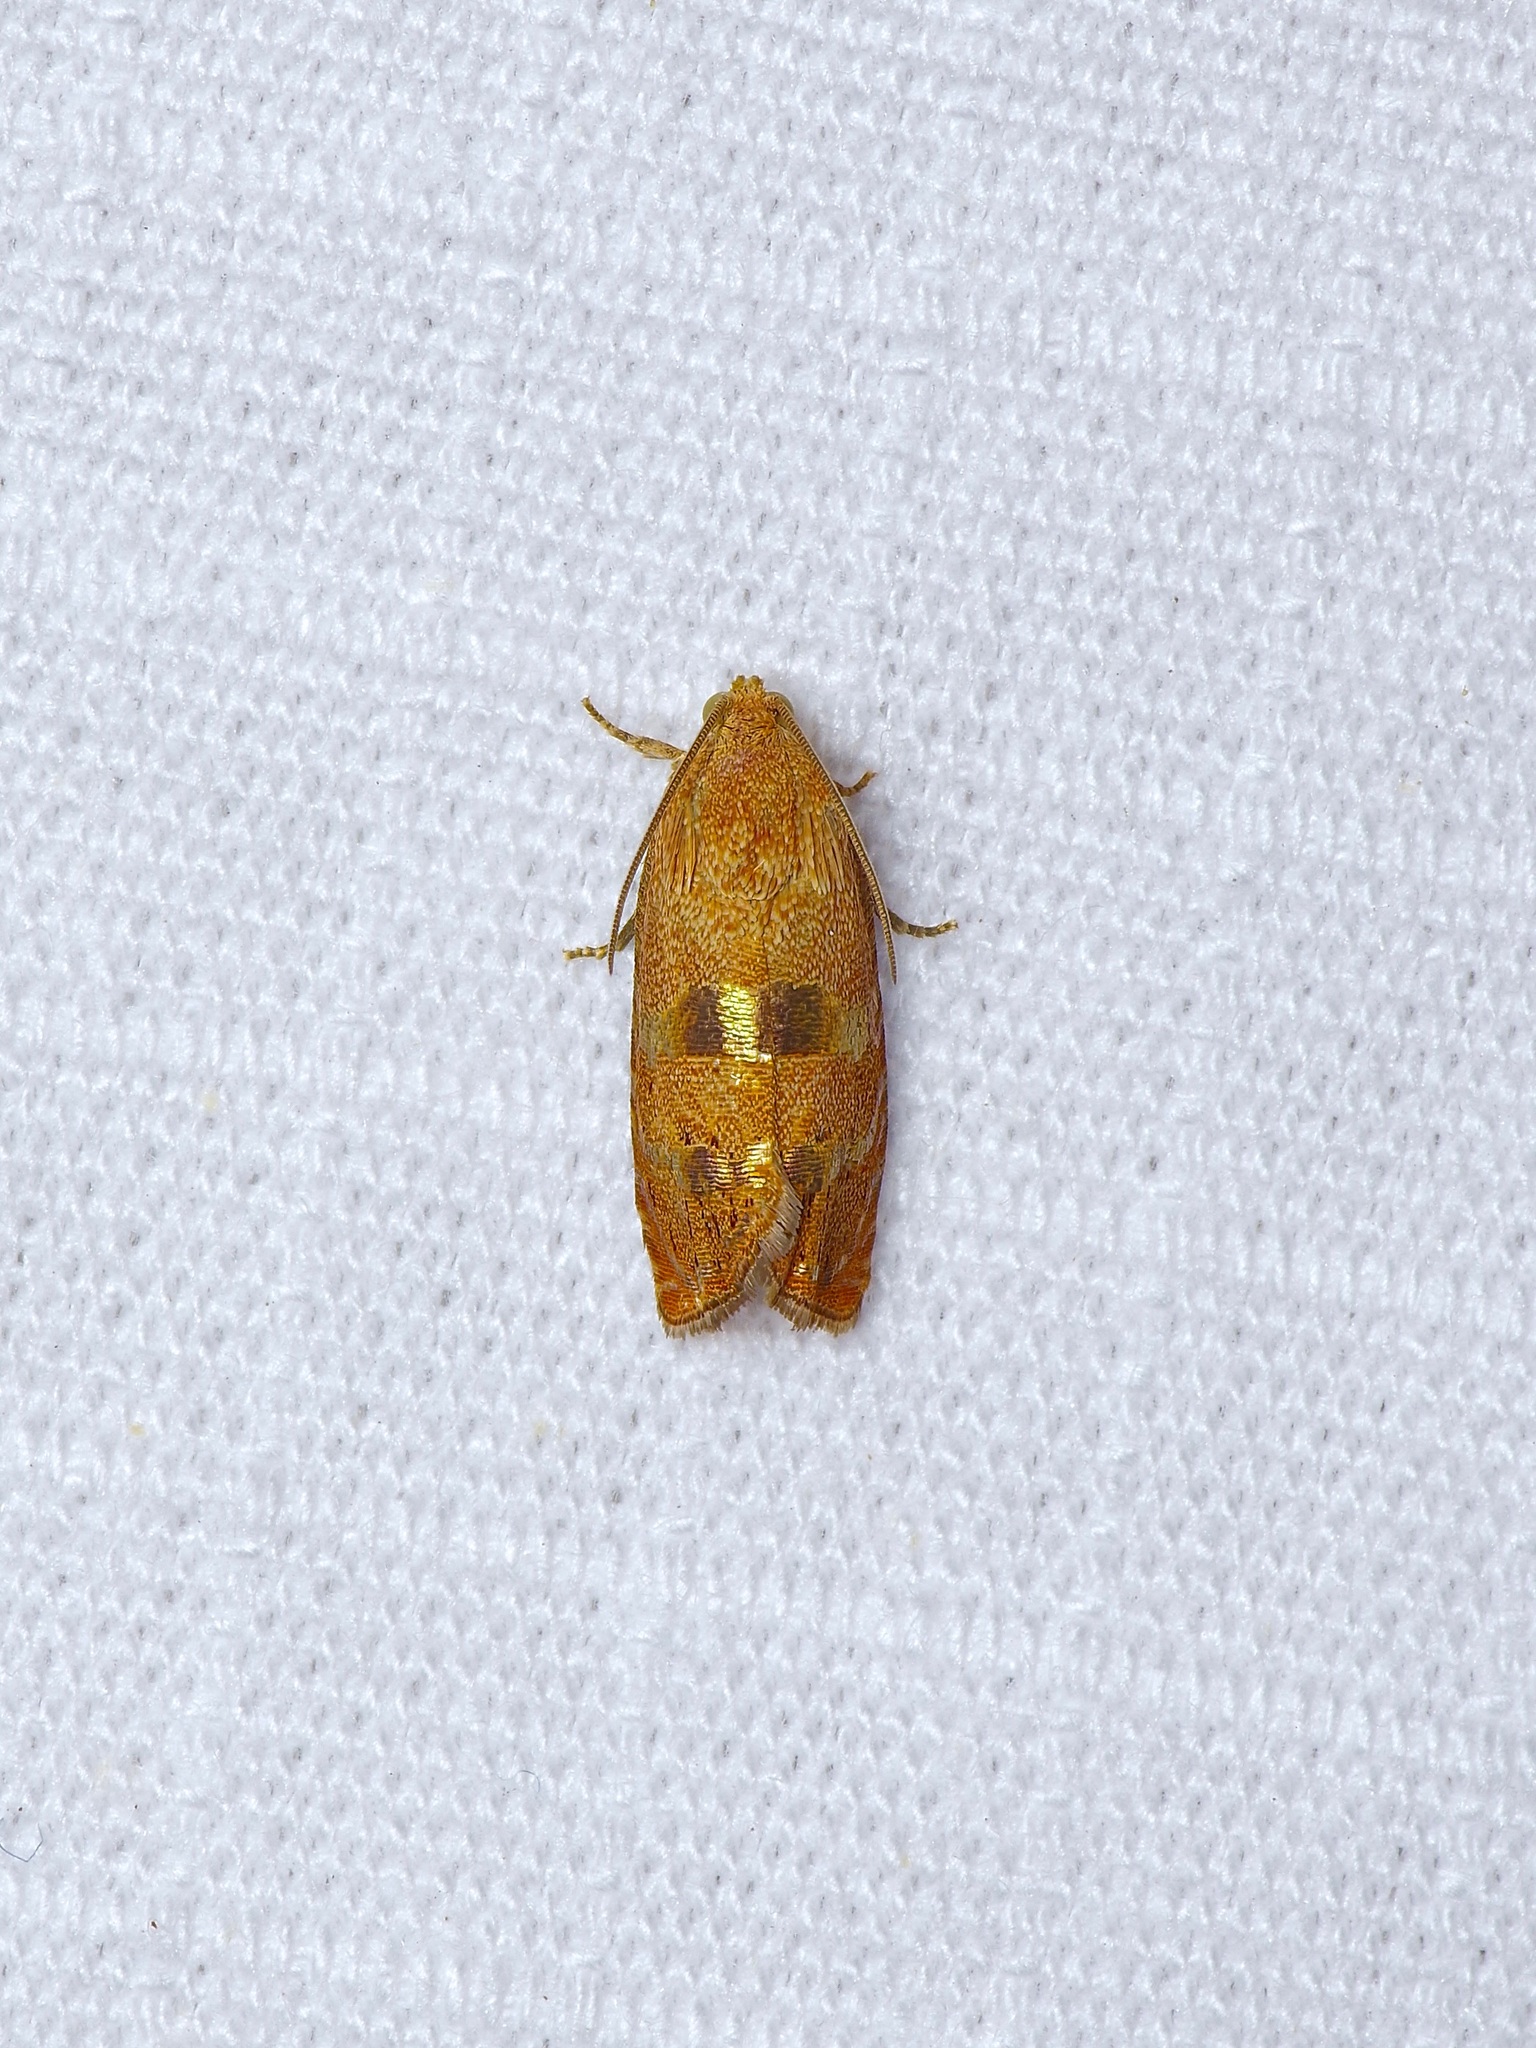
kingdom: Animalia
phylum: Arthropoda
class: Insecta
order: Lepidoptera
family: Tortricidae
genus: Cydia
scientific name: Cydia latiferreana
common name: Filbertworm moth
